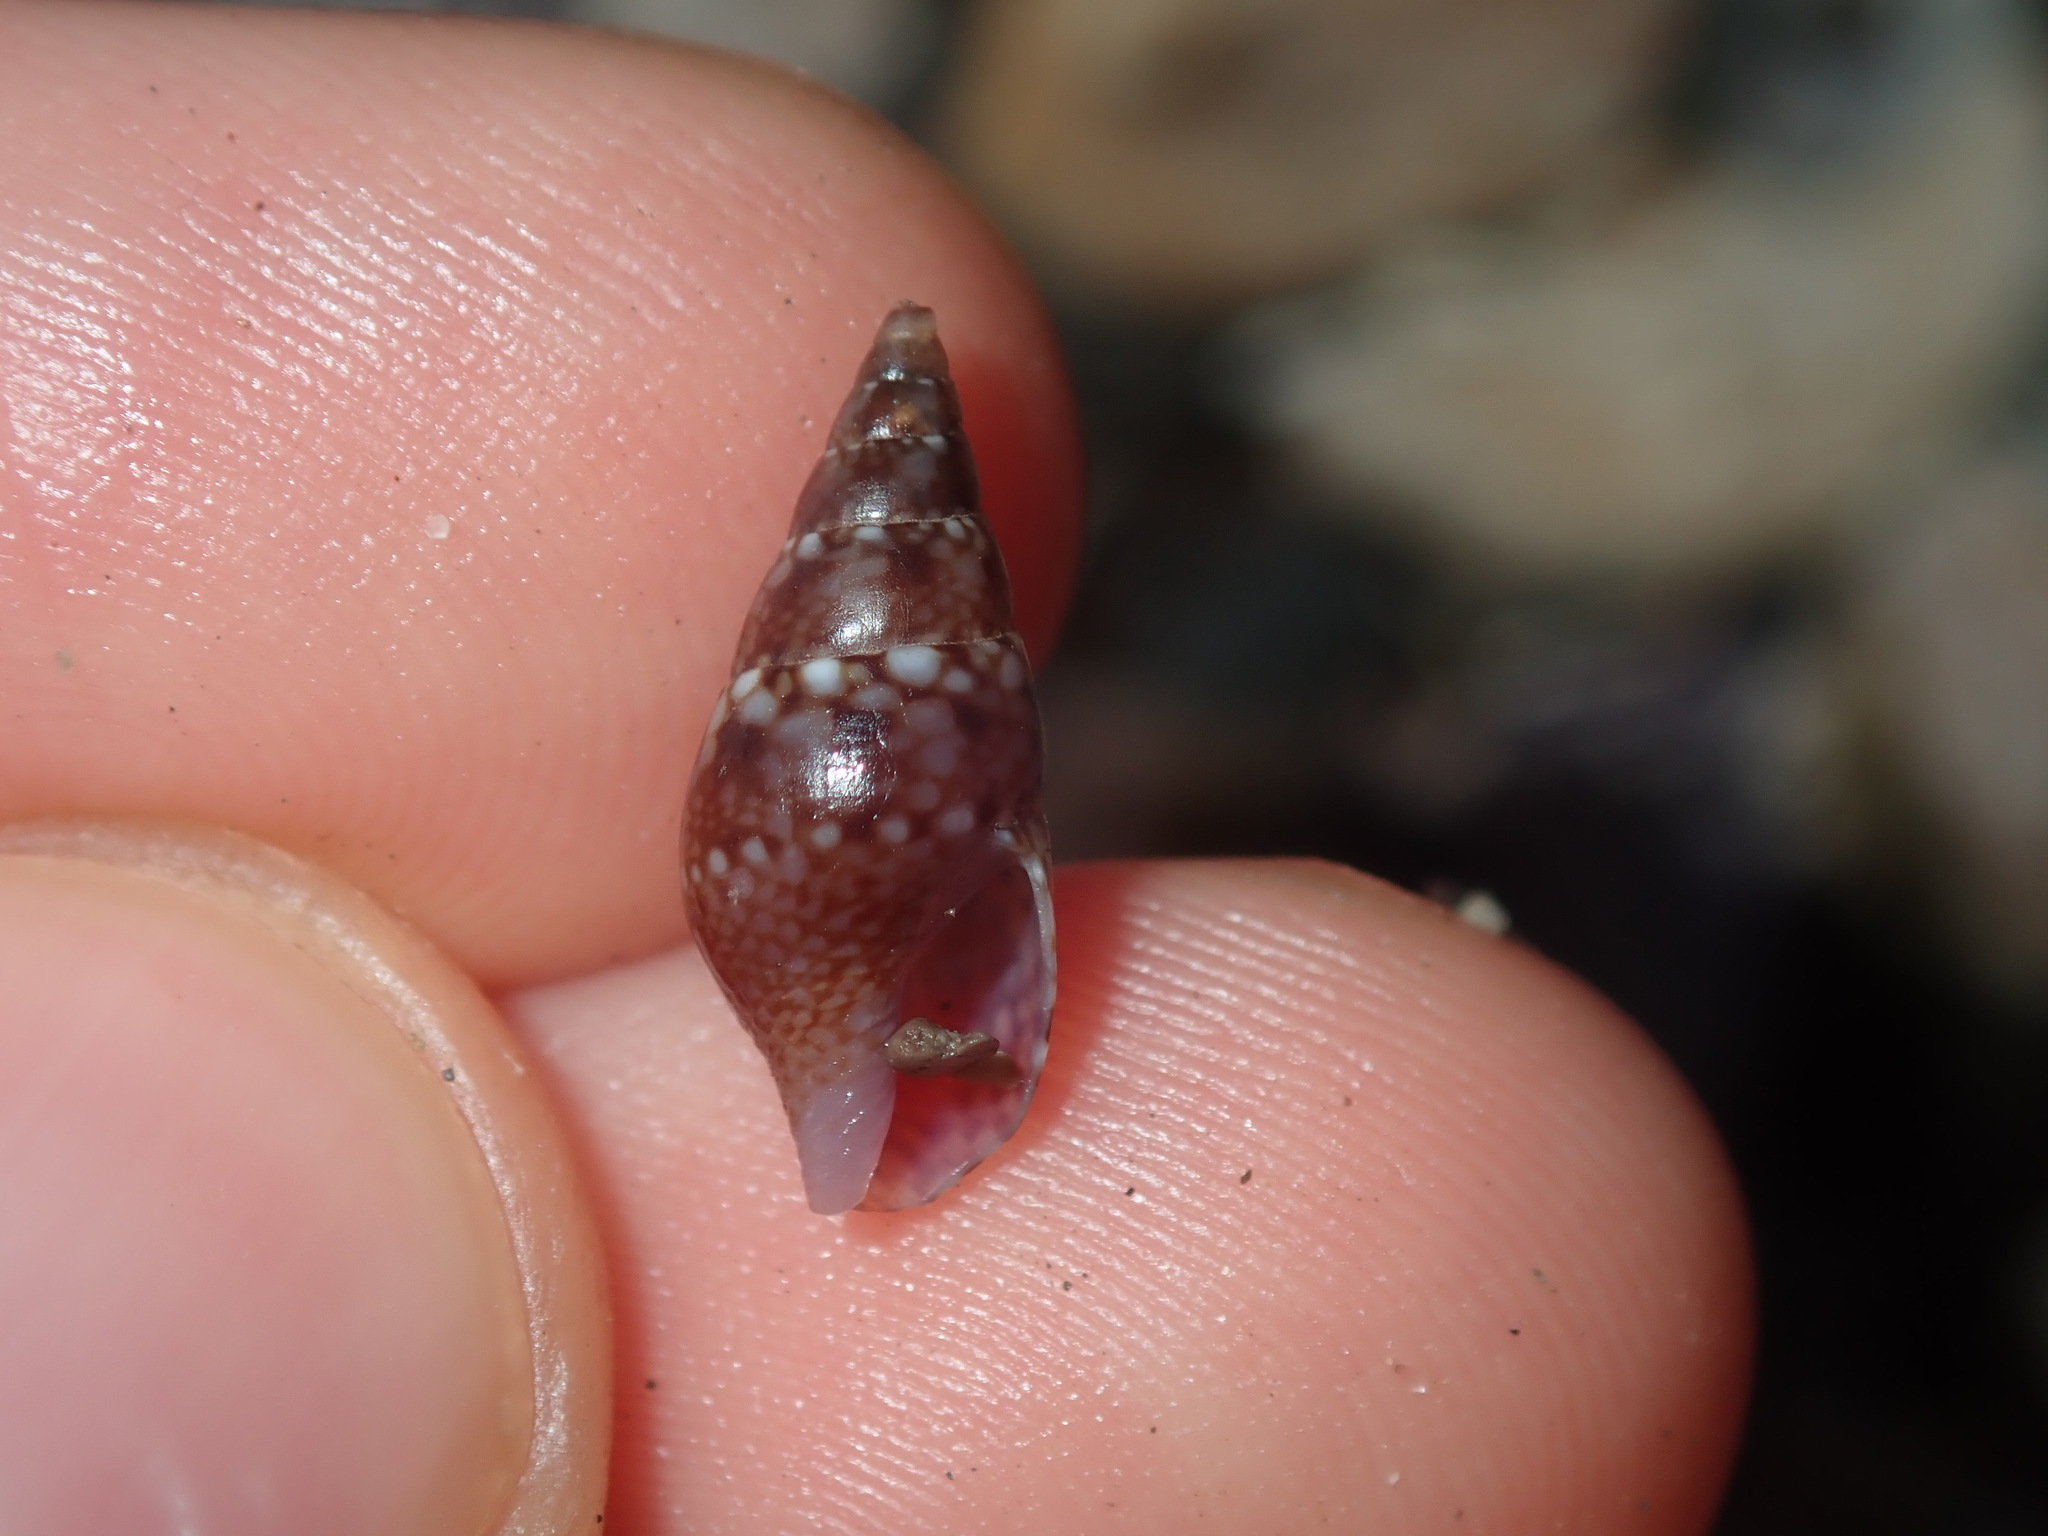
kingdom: Animalia
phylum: Mollusca
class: Gastropoda
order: Neogastropoda
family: Columbellidae
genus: Mitrella
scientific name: Mitrella semiconvexa
